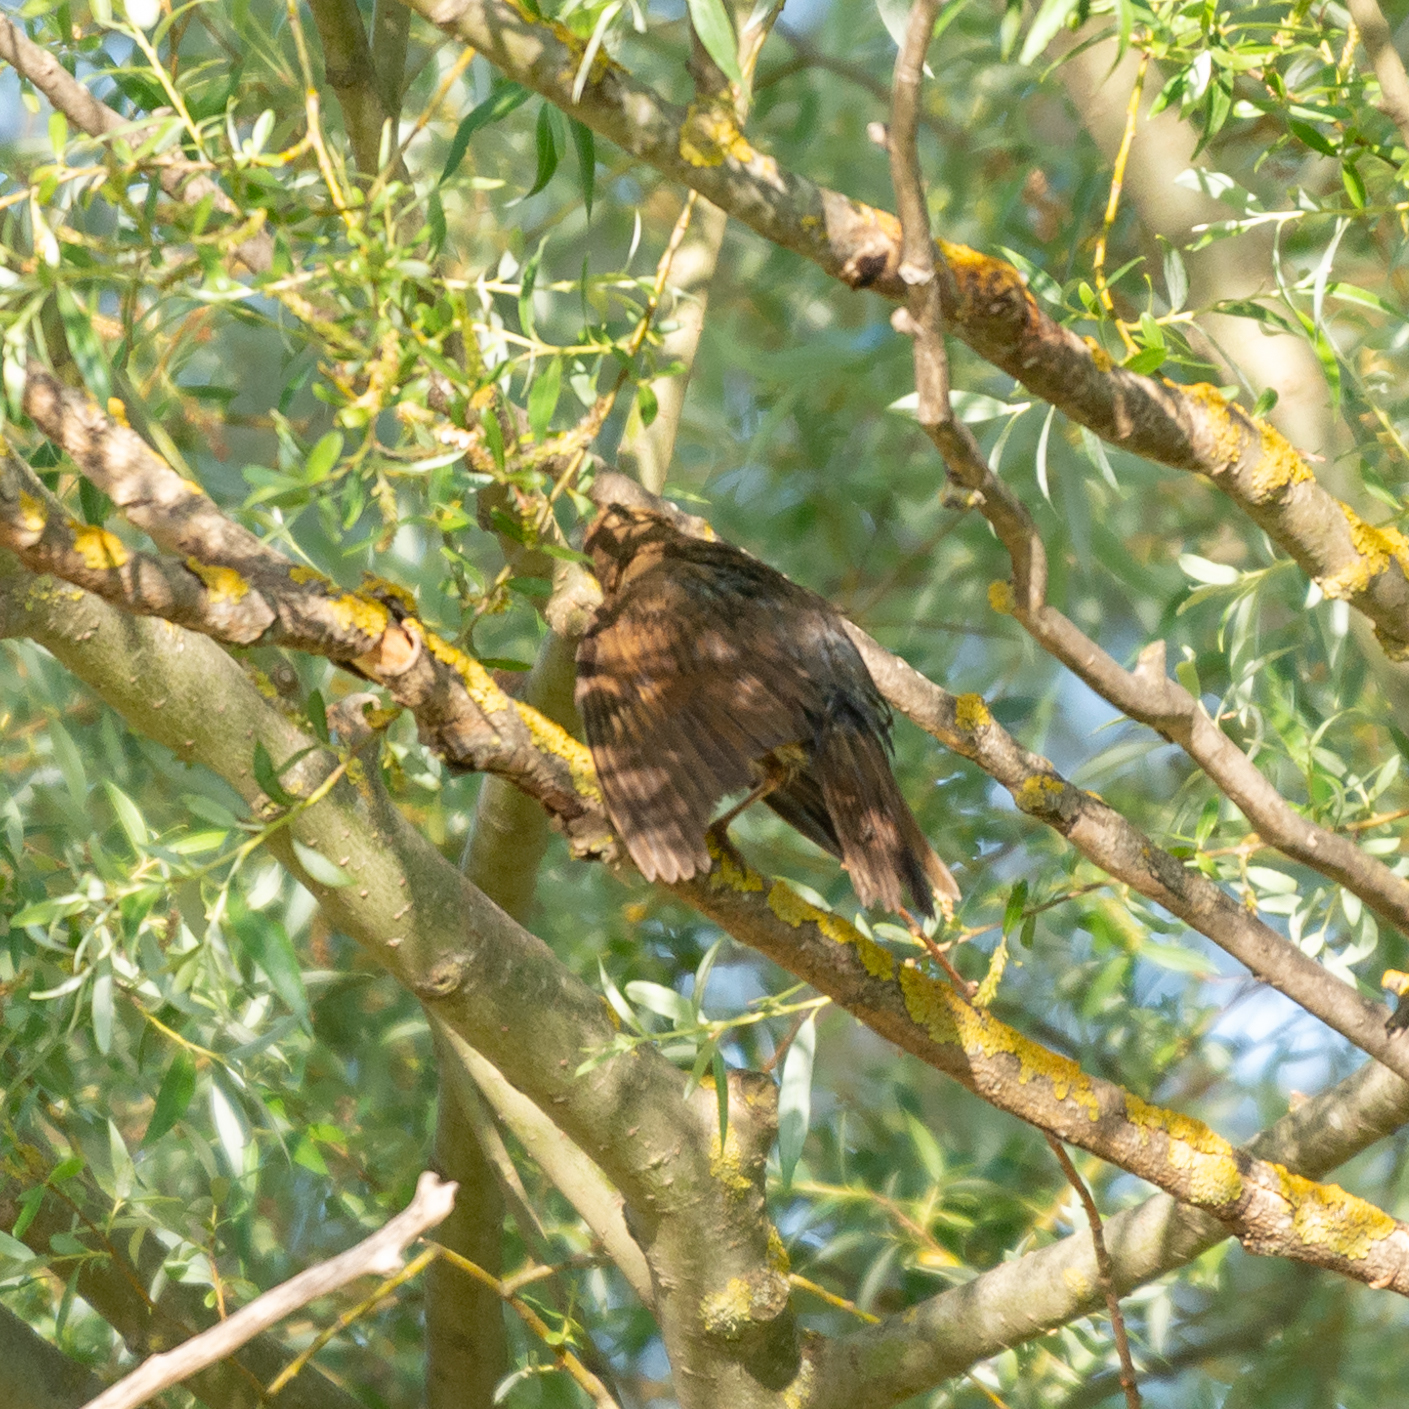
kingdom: Animalia
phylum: Chordata
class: Aves
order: Passeriformes
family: Turdidae
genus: Turdus
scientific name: Turdus philomelos
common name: Song thrush
